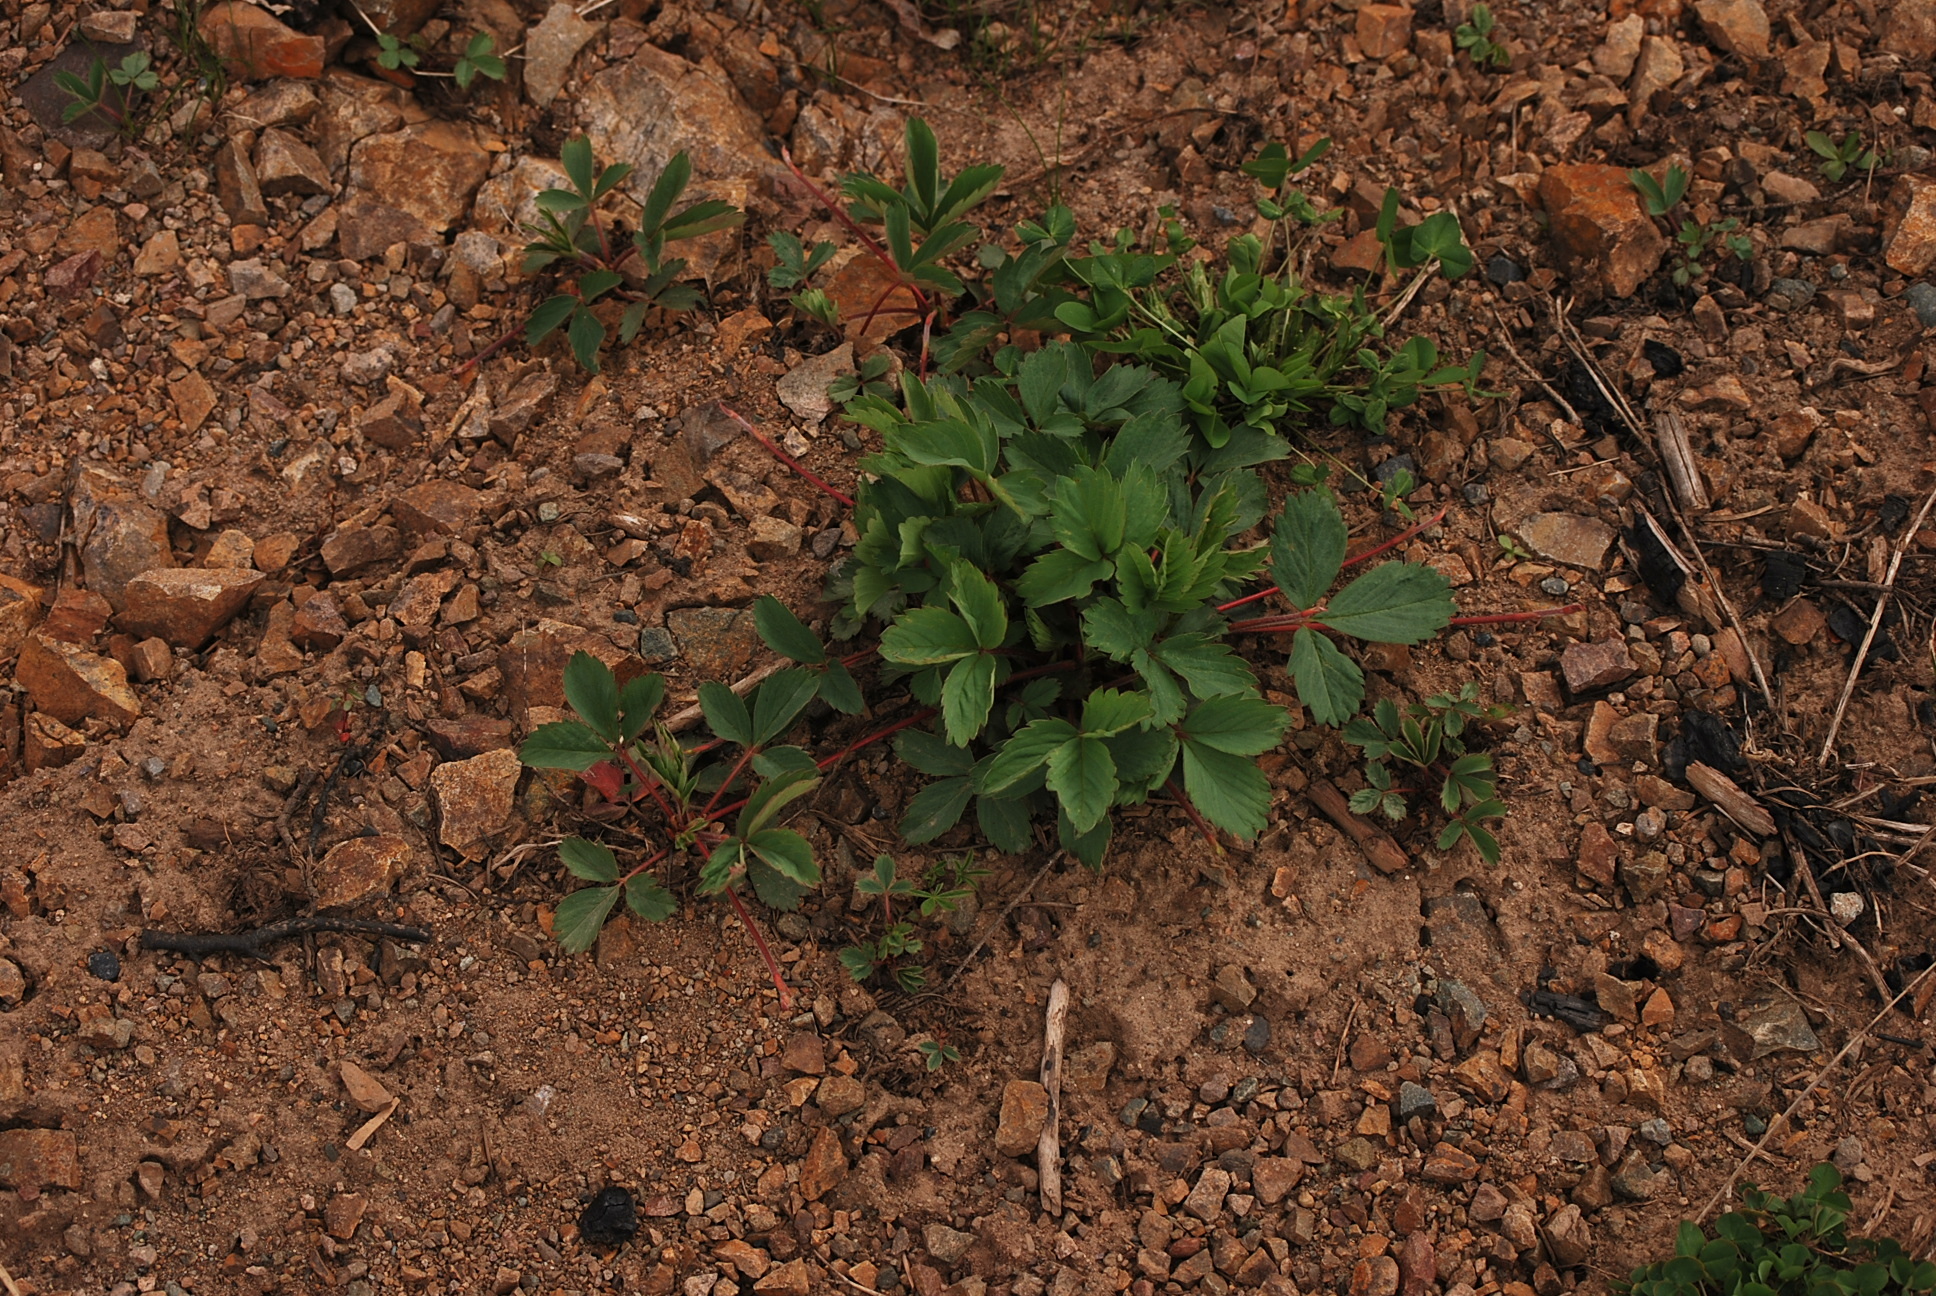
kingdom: Plantae
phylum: Tracheophyta
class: Magnoliopsida
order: Rosales
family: Rosaceae
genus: Fragaria
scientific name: Fragaria virginiana
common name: Thickleaved wild strawberry
